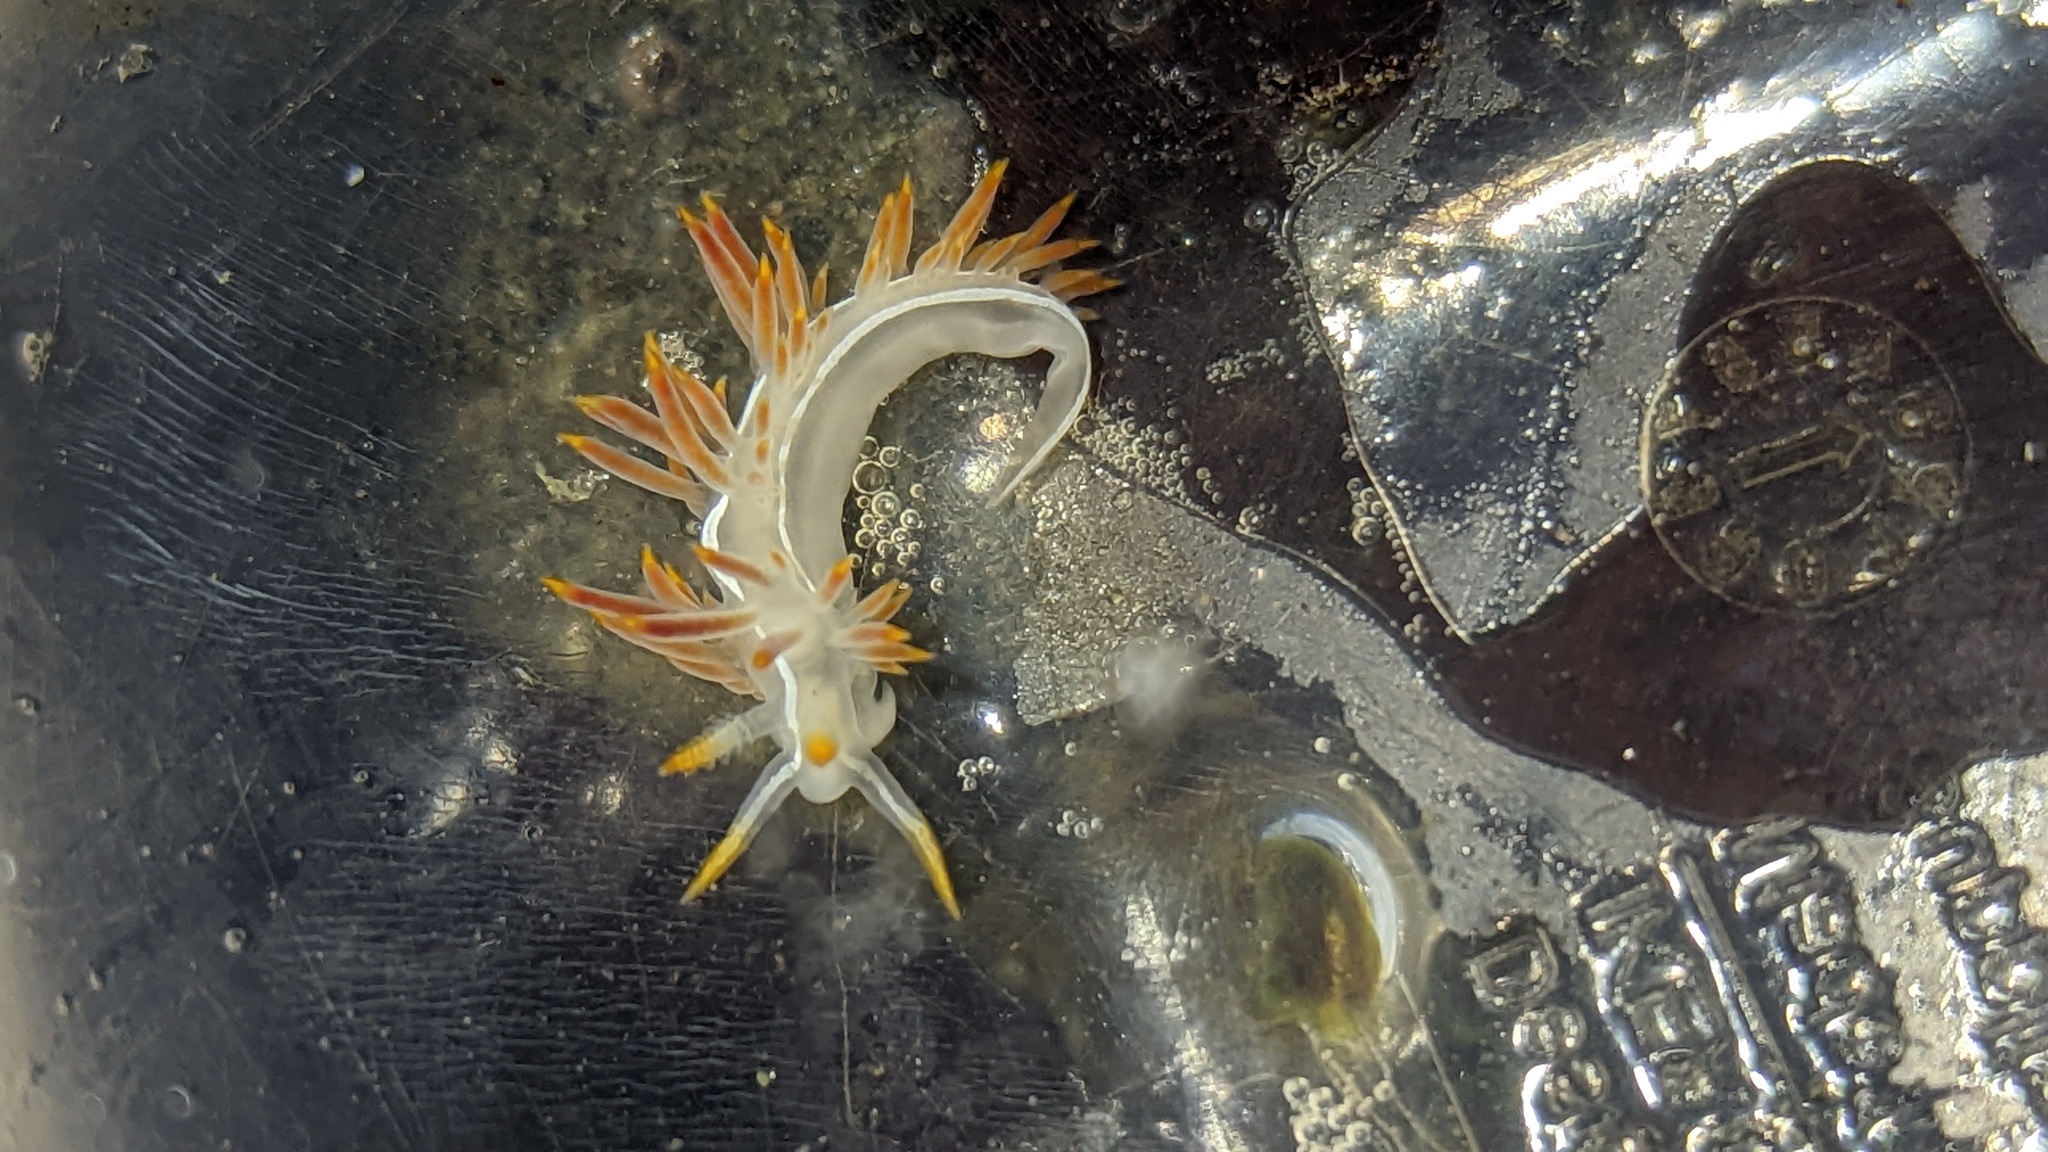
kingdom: Animalia
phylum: Mollusca
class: Gastropoda
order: Nudibranchia
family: Coryphellidae
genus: Coryphella
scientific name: Coryphella trilineata
